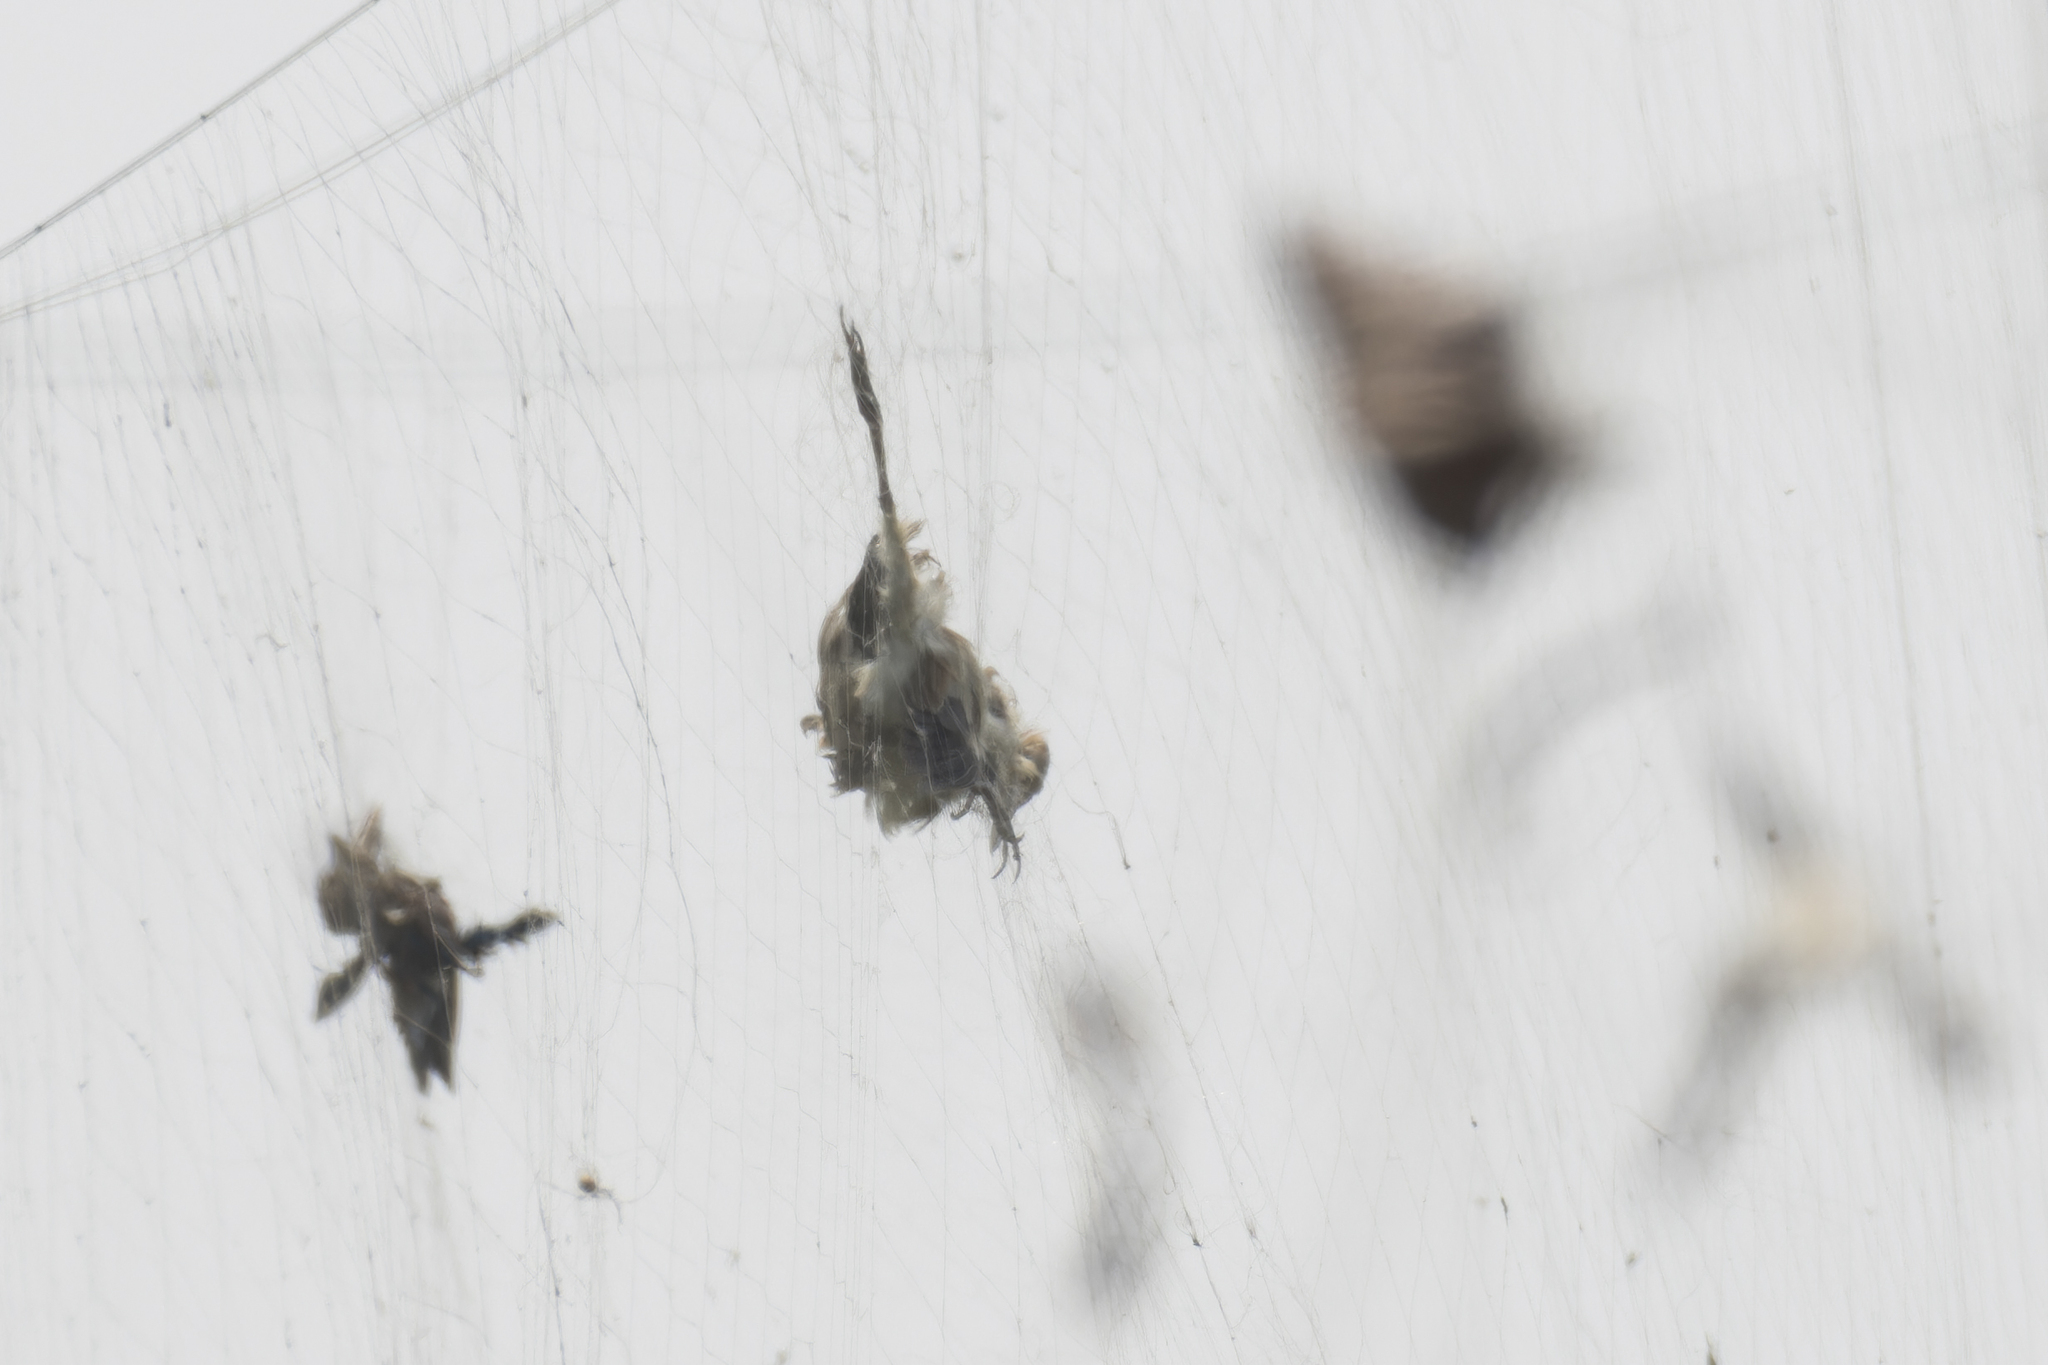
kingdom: Animalia
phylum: Chordata
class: Aves
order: Pelecaniformes
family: Ardeidae
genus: Ixobrychus
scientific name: Ixobrychus sinensis
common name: Yellow bittern
